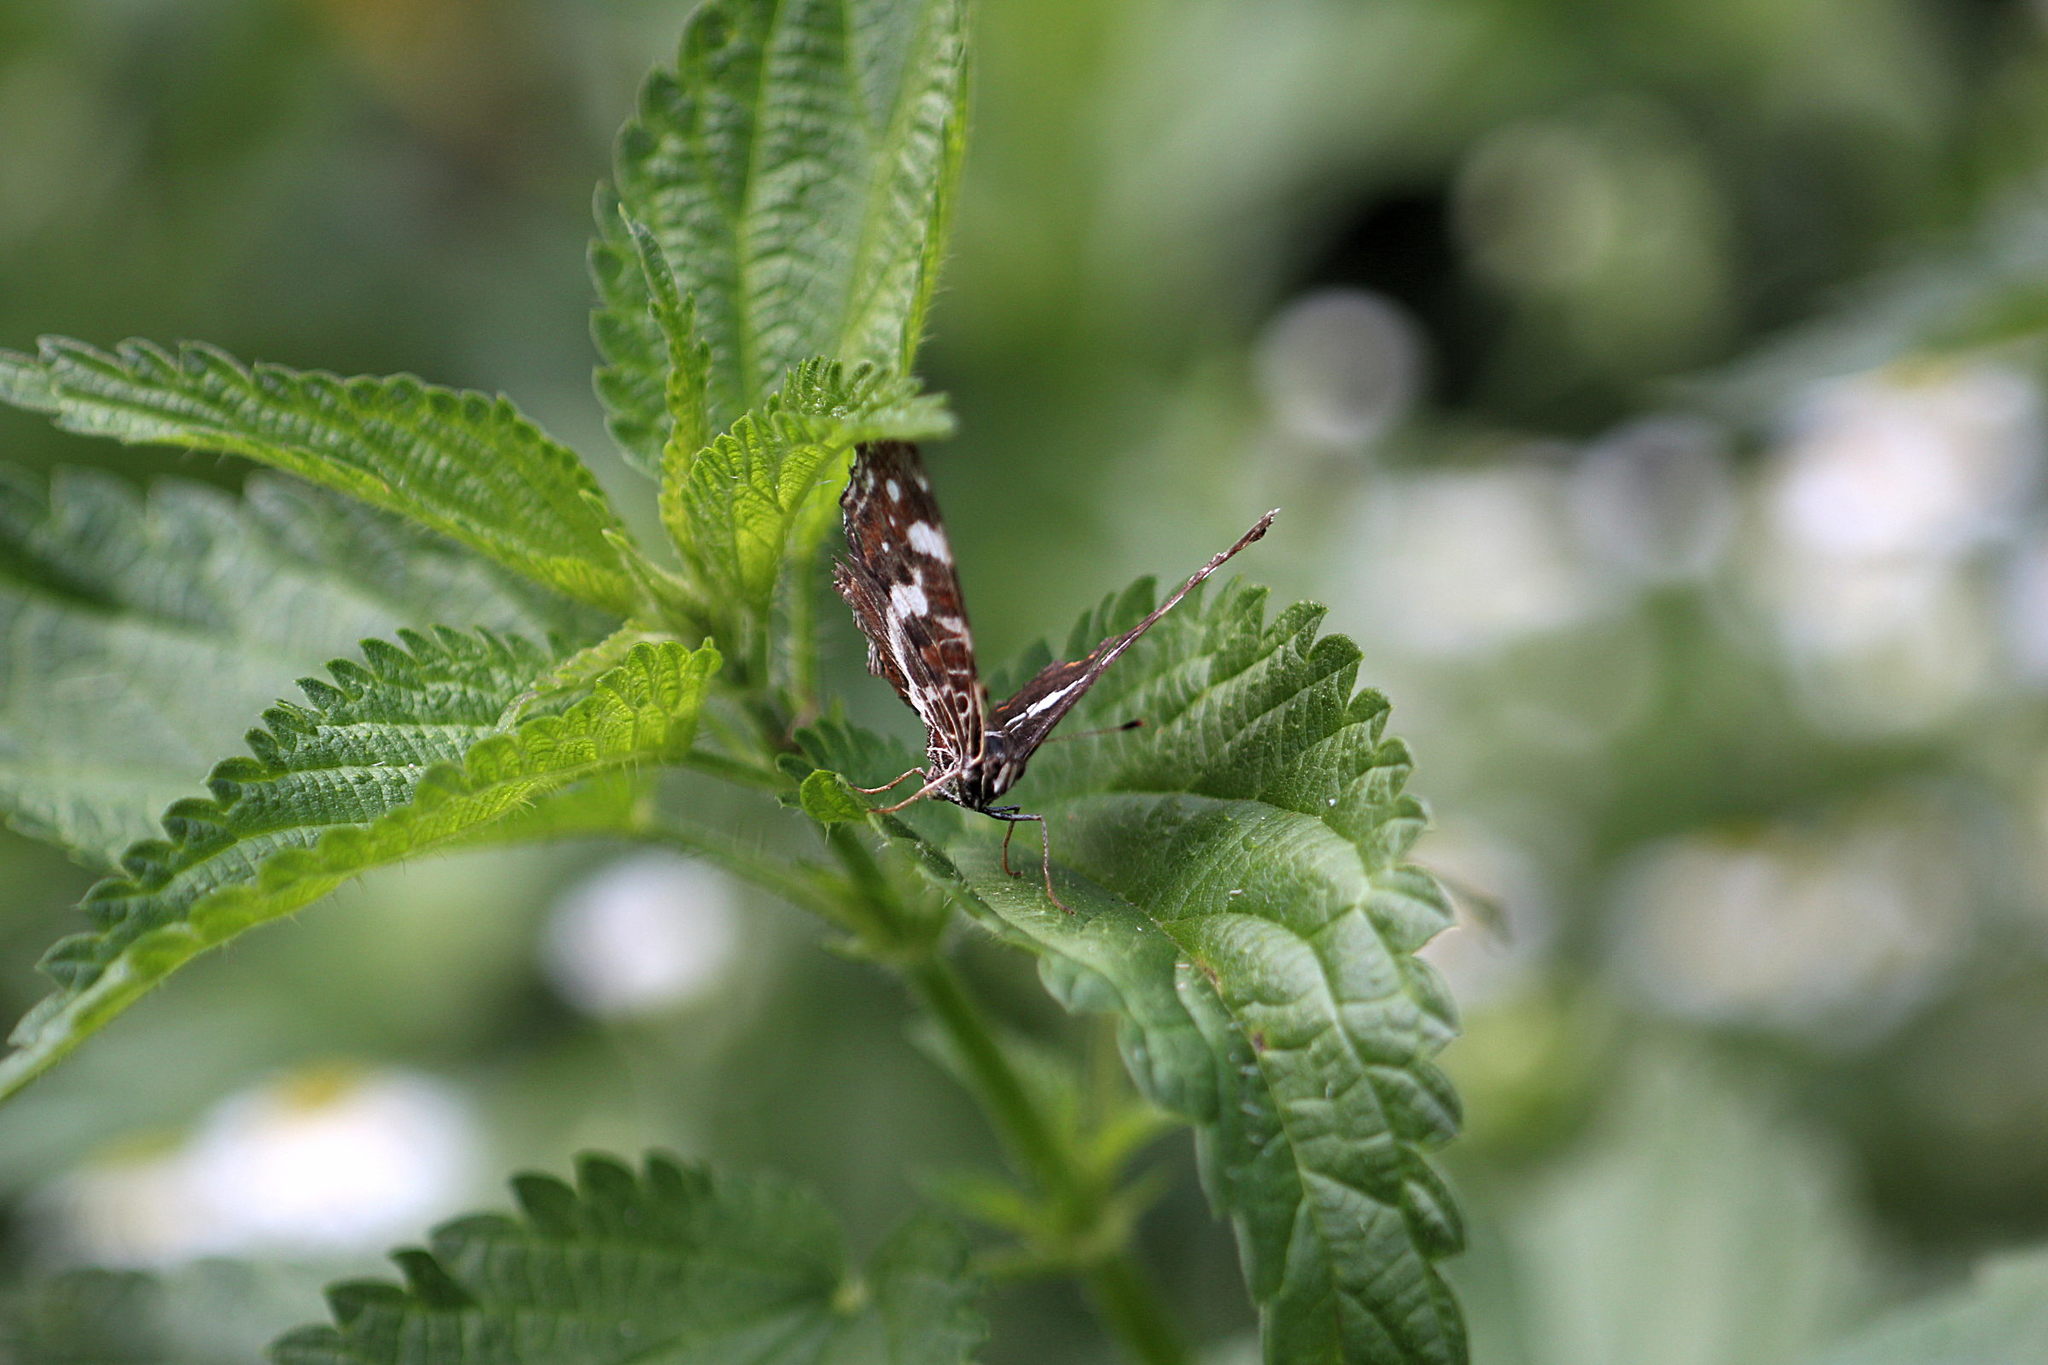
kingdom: Animalia
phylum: Arthropoda
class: Insecta
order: Lepidoptera
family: Nymphalidae
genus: Araschnia
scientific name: Araschnia levana
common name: Map butterfly
